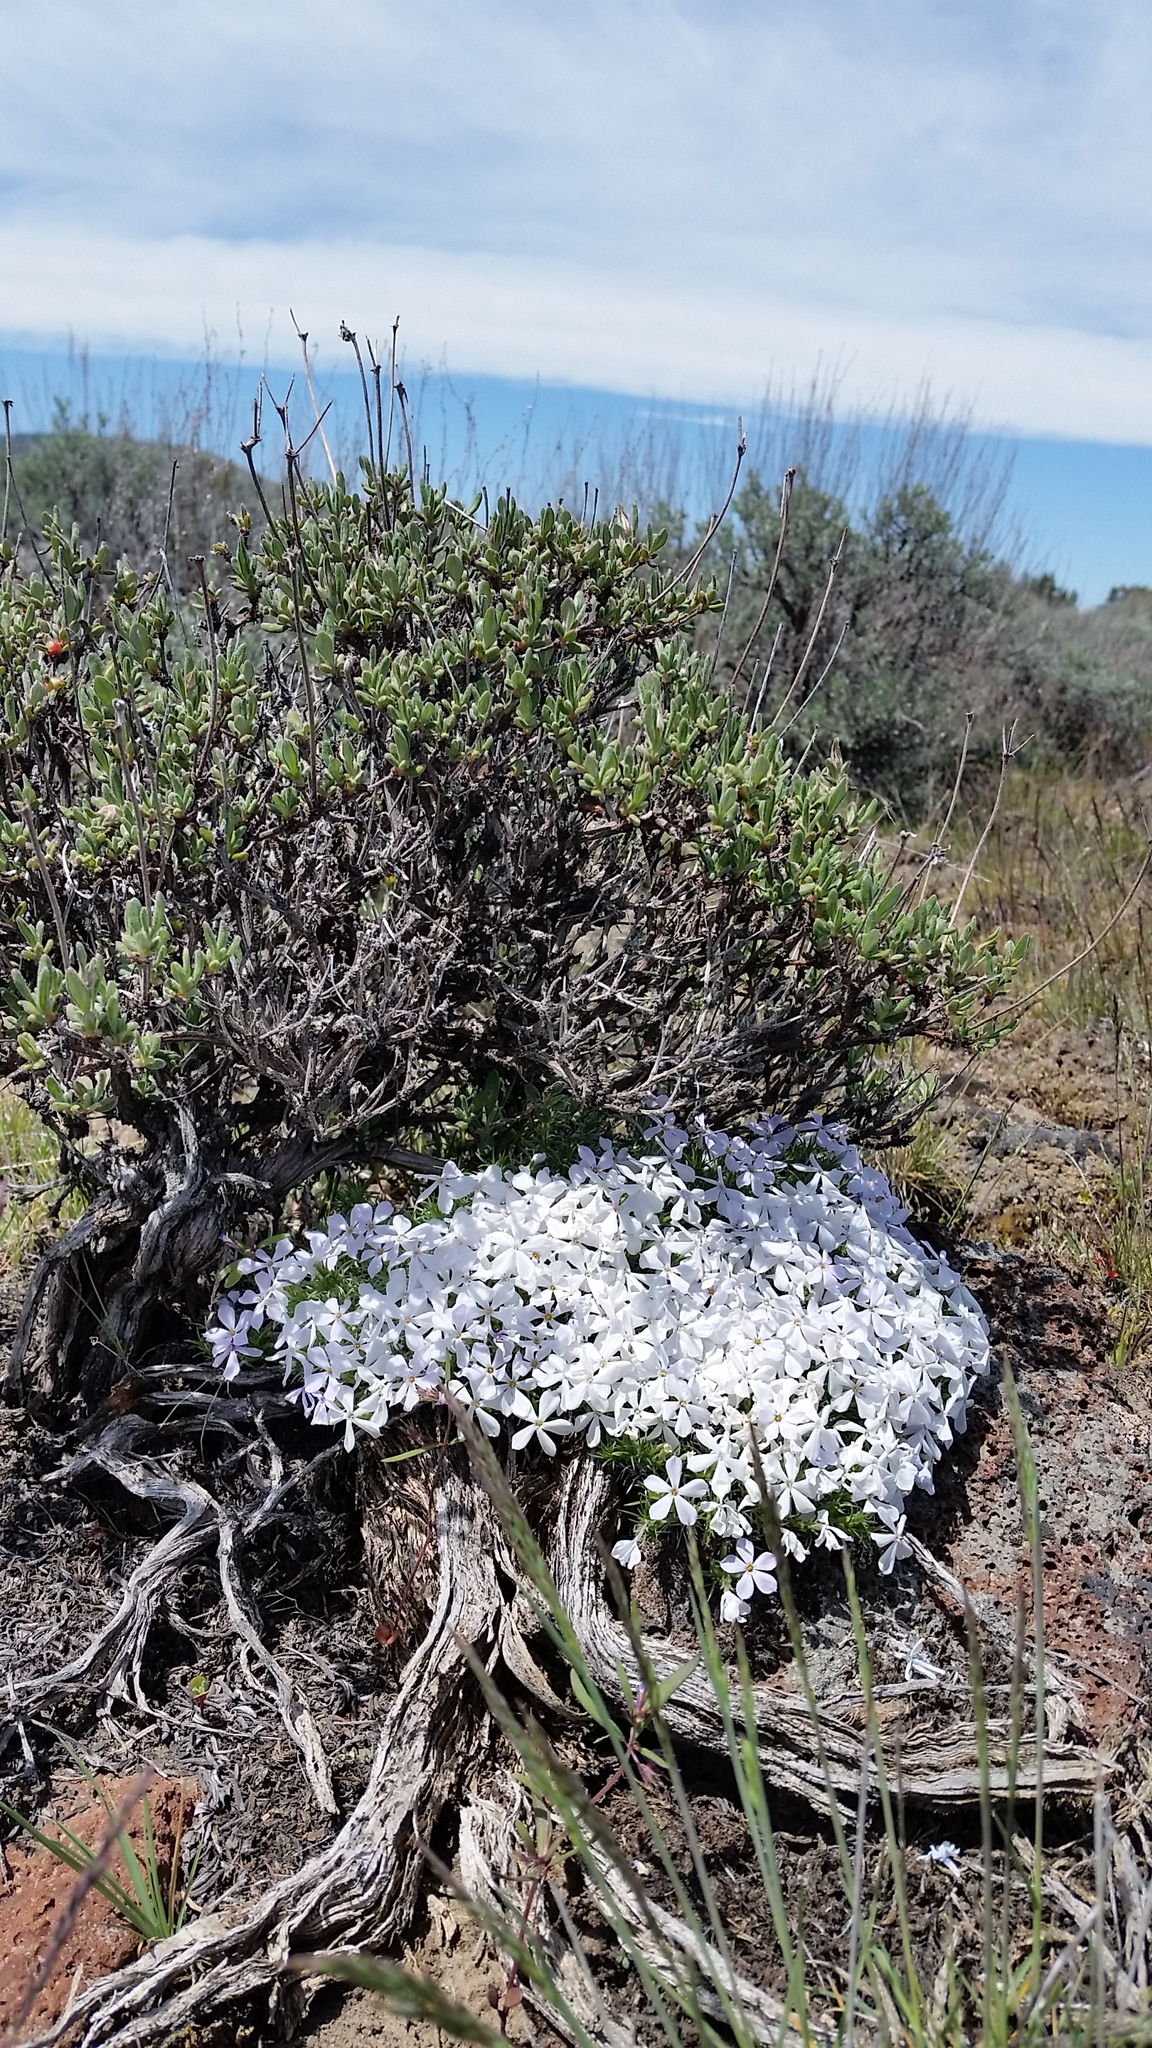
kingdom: Plantae
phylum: Tracheophyta
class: Magnoliopsida
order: Ericales
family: Polemoniaceae
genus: Phlox
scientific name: Phlox hoodii
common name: Moss phlox
